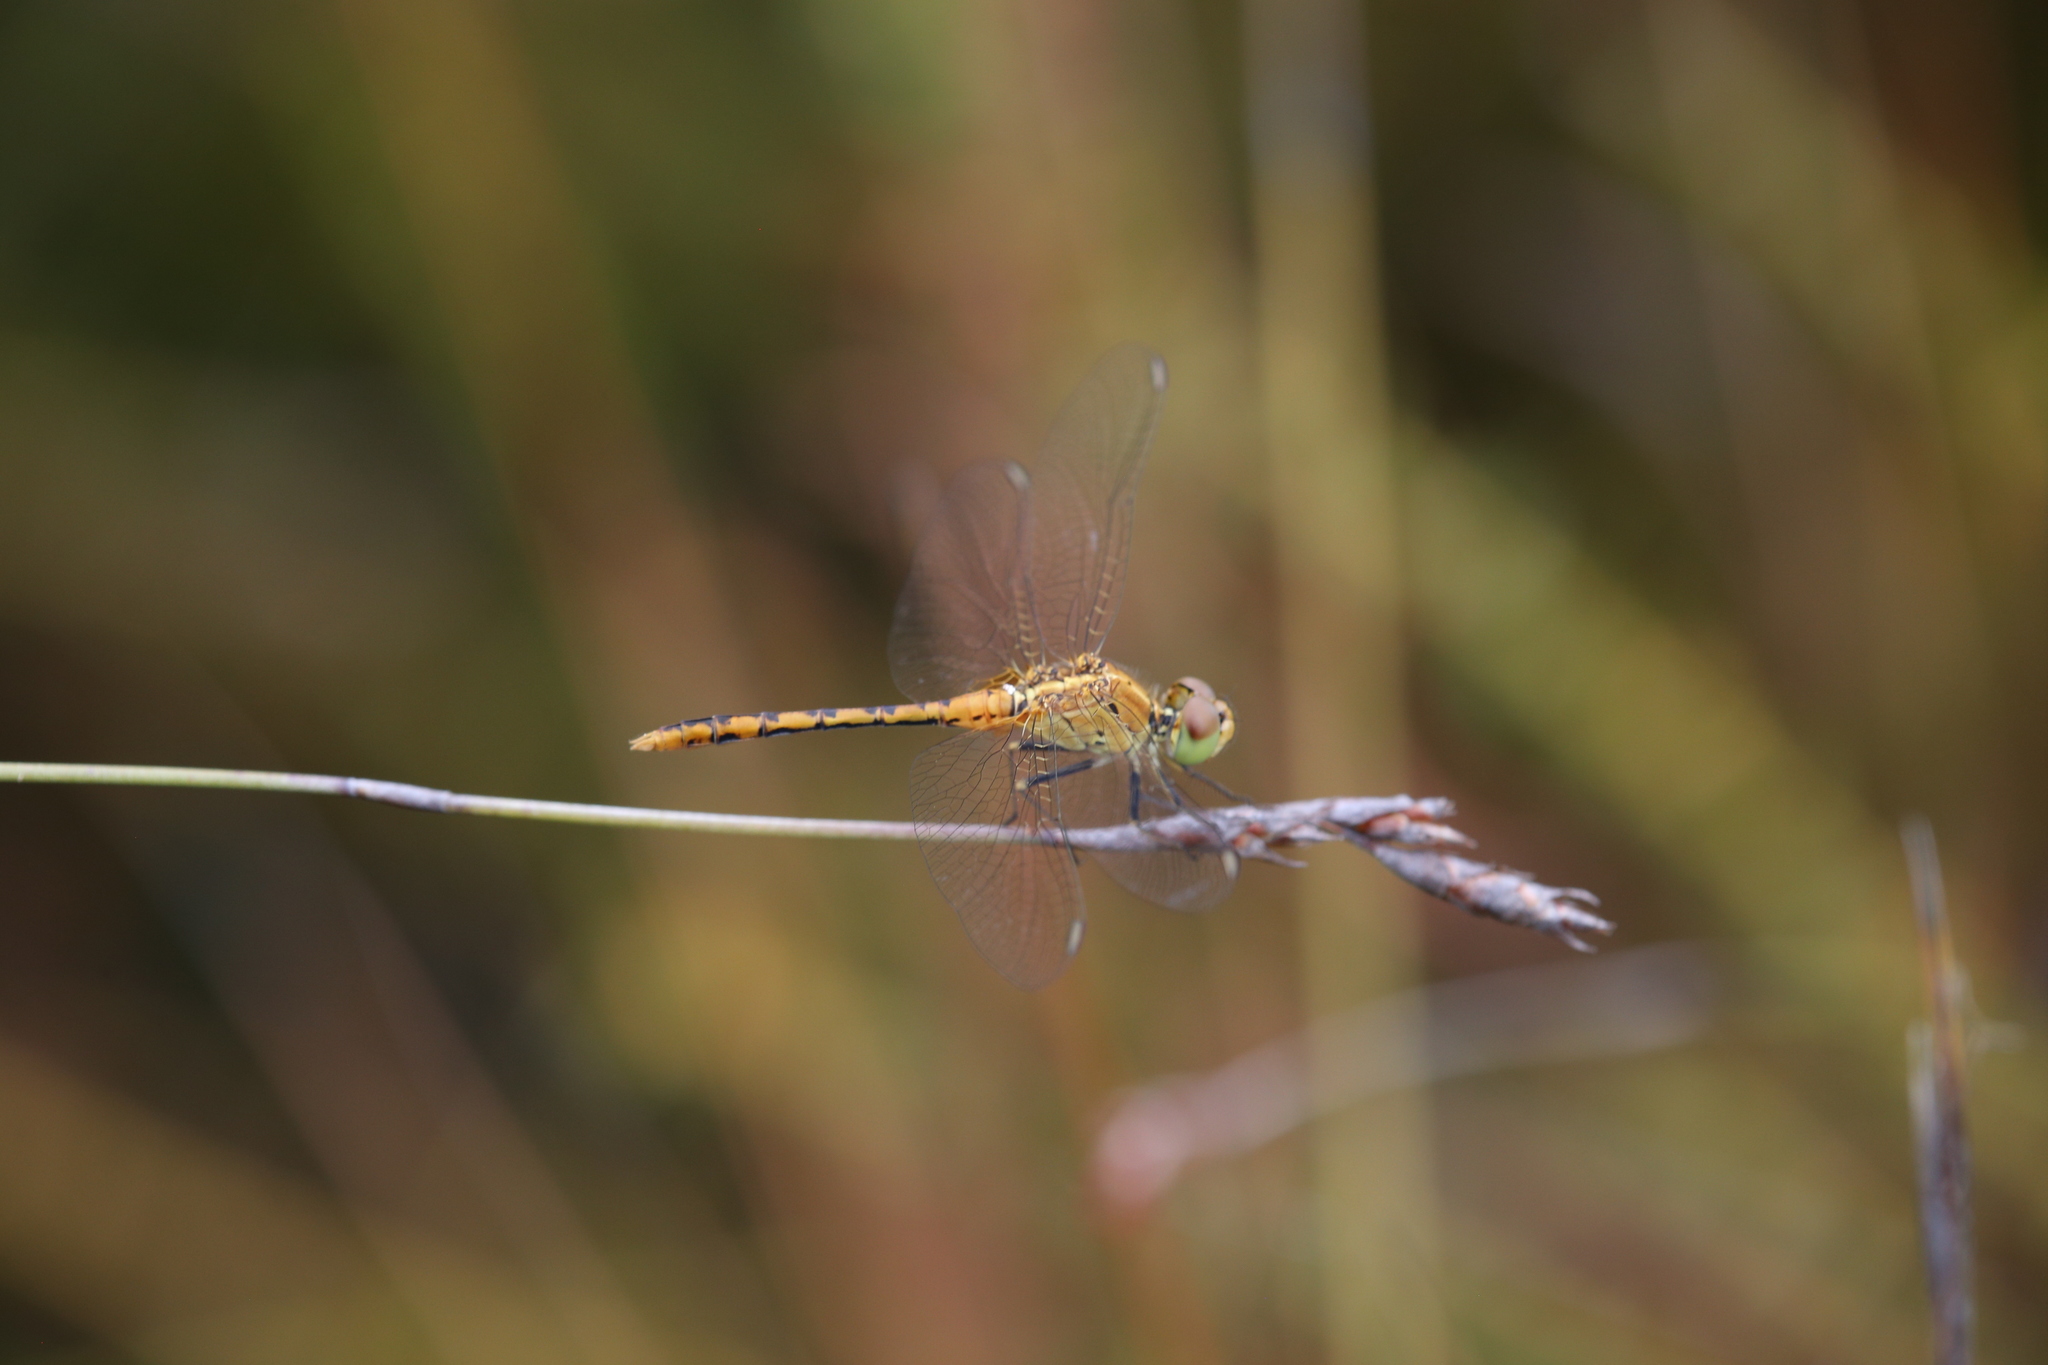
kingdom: Animalia
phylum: Arthropoda
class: Insecta
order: Odonata
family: Libellulidae
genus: Diplacodes
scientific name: Diplacodes bipunctata
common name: Red percher dragonfly
